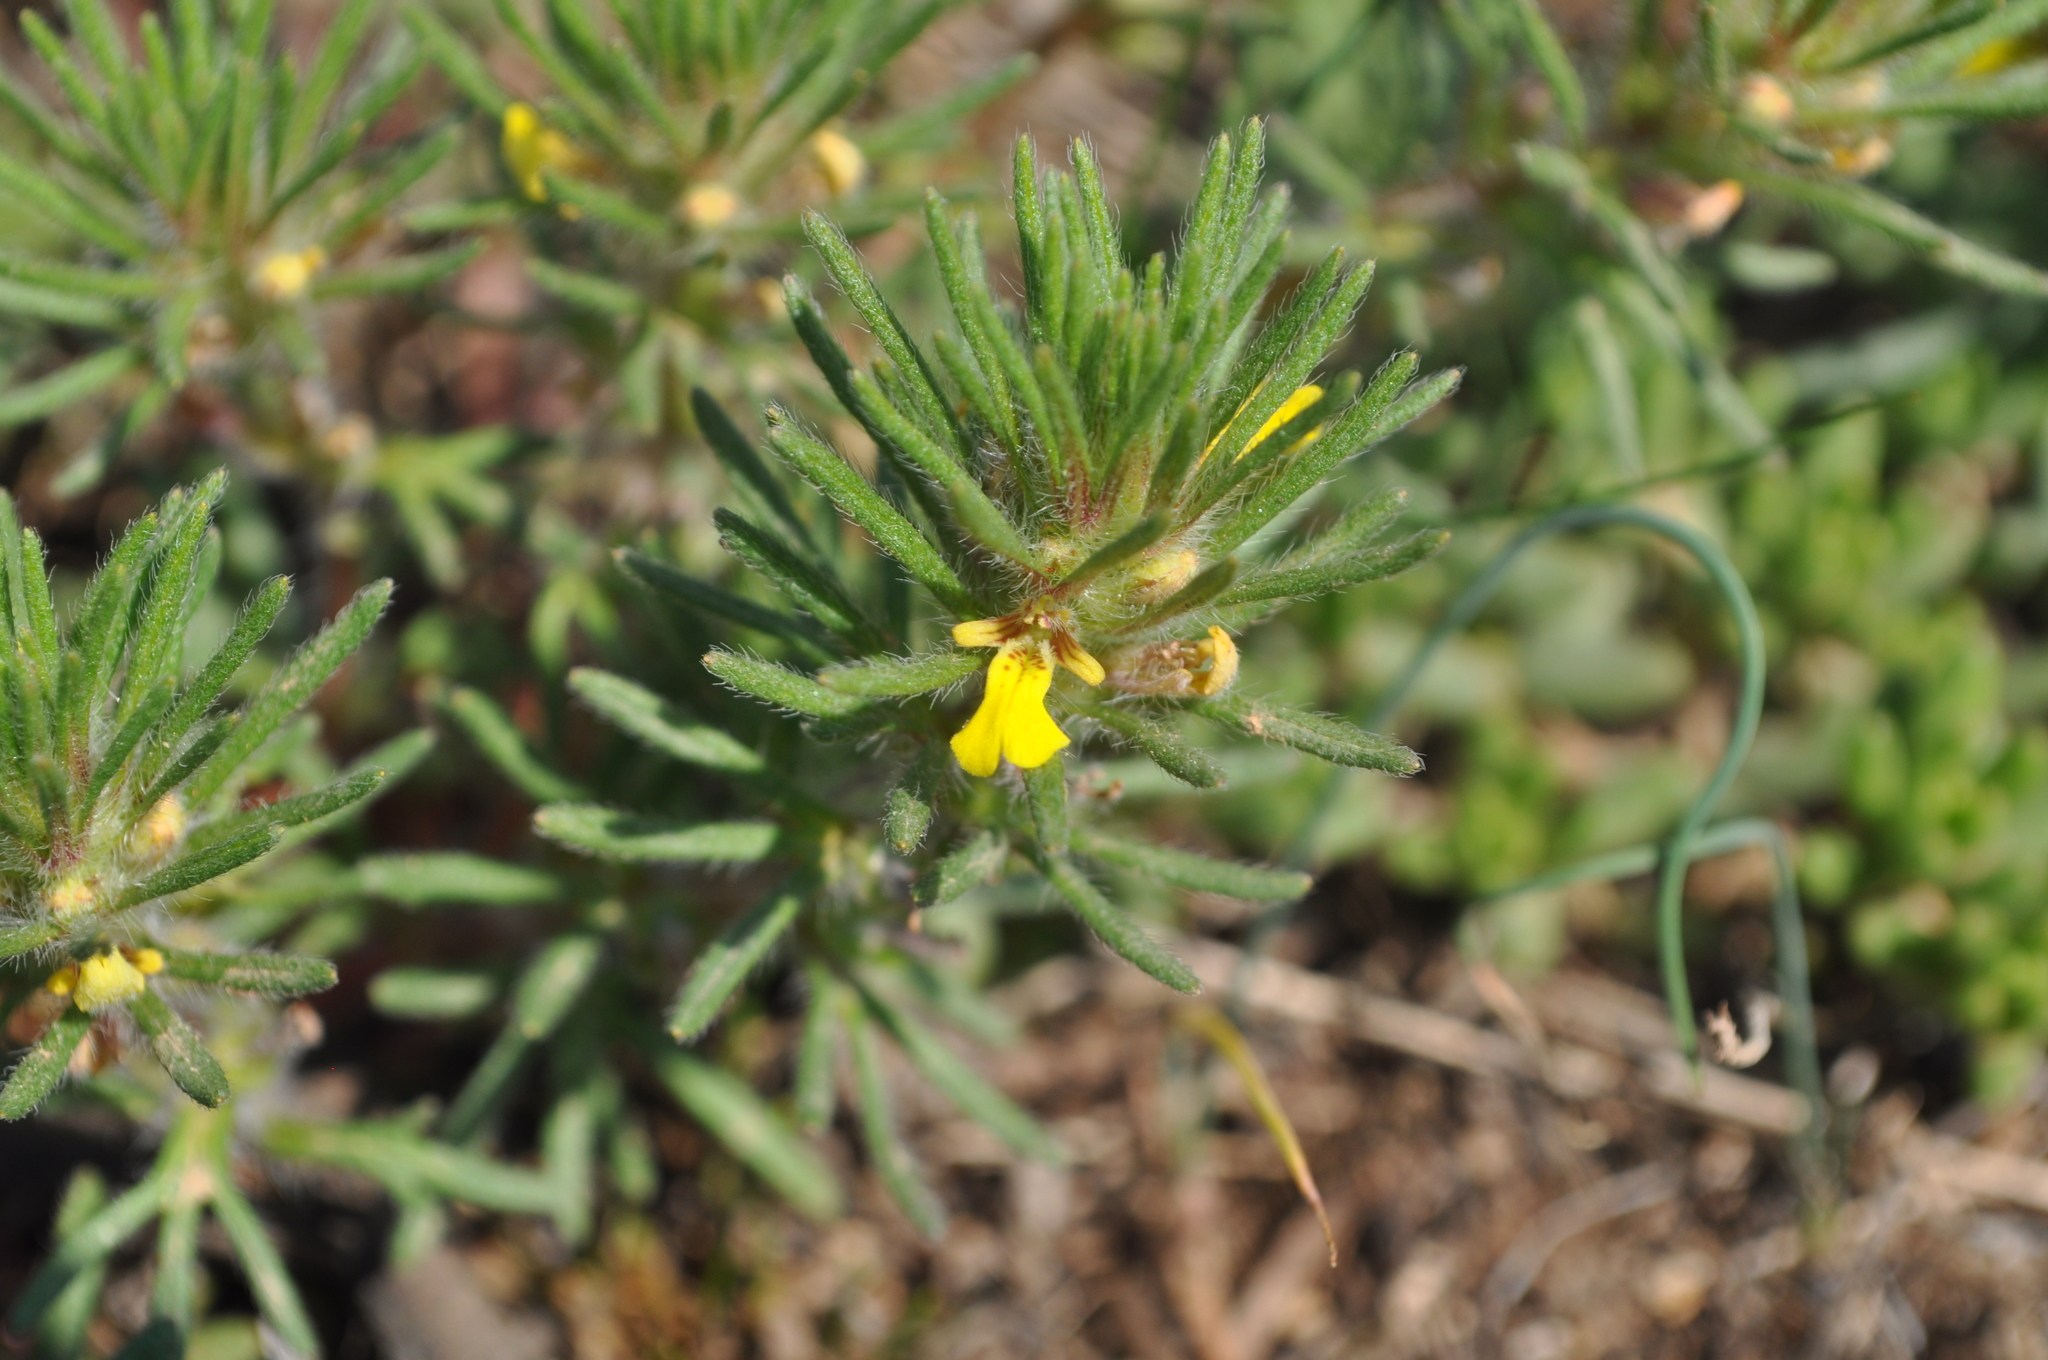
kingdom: Plantae
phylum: Tracheophyta
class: Magnoliopsida
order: Lamiales
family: Lamiaceae
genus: Ajuga
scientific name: Ajuga chamaepitys
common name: Ground-pine
